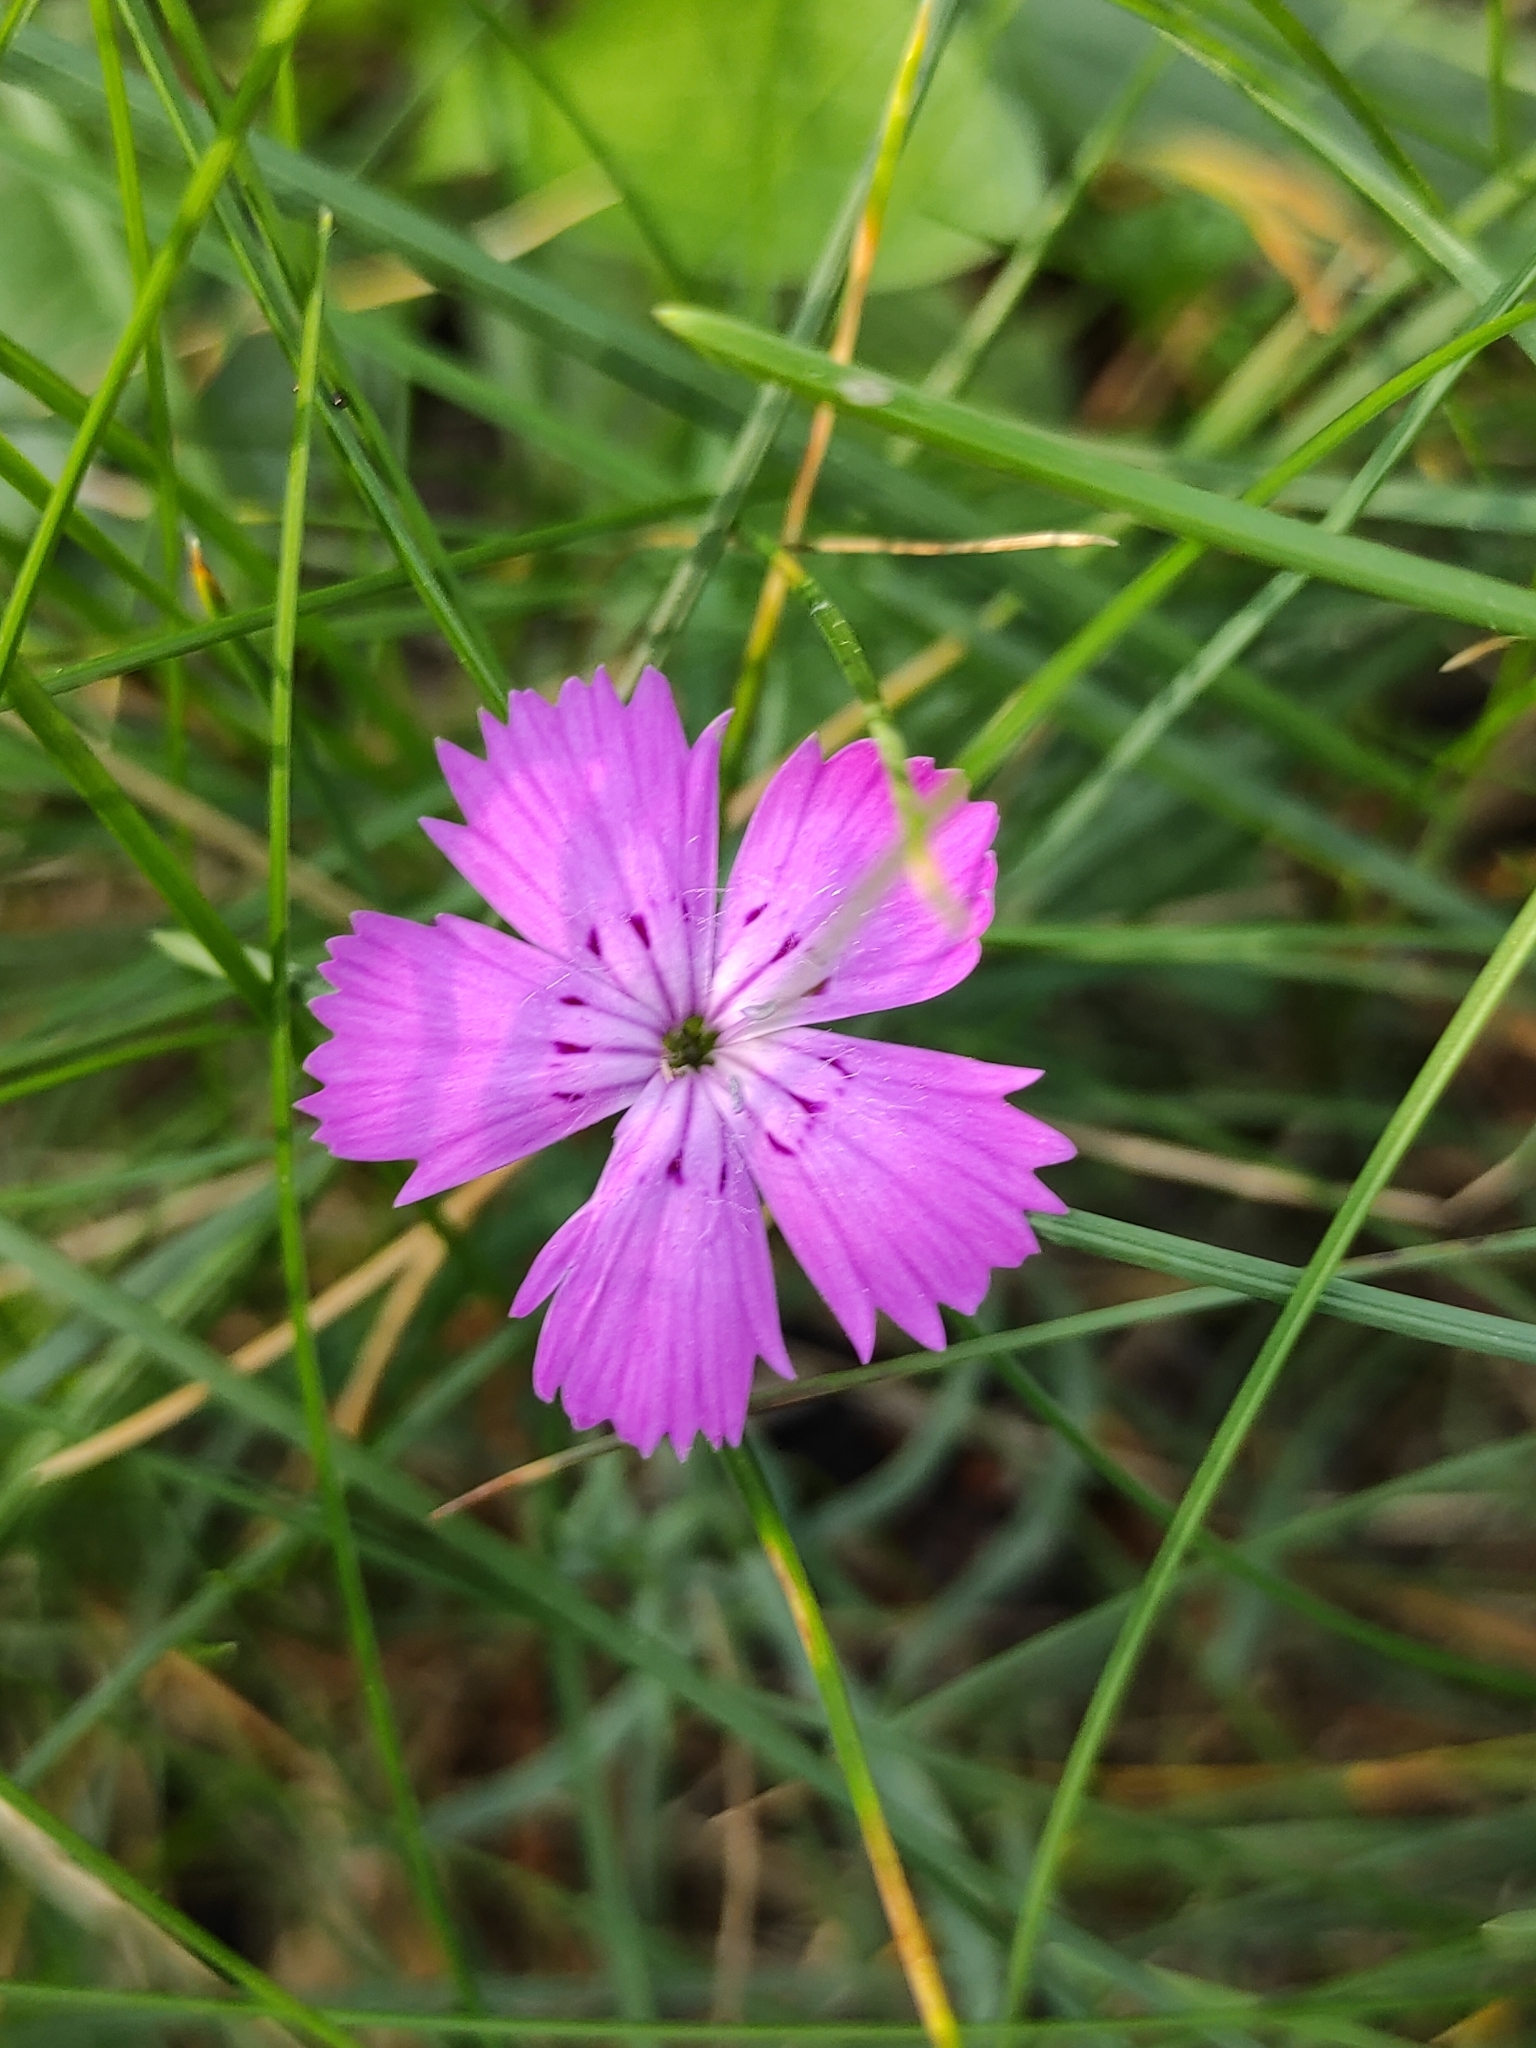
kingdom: Plantae
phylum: Tracheophyta
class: Magnoliopsida
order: Caryophyllales
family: Caryophyllaceae
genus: Dianthus
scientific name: Dianthus chinensis
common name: Rainbow pink
